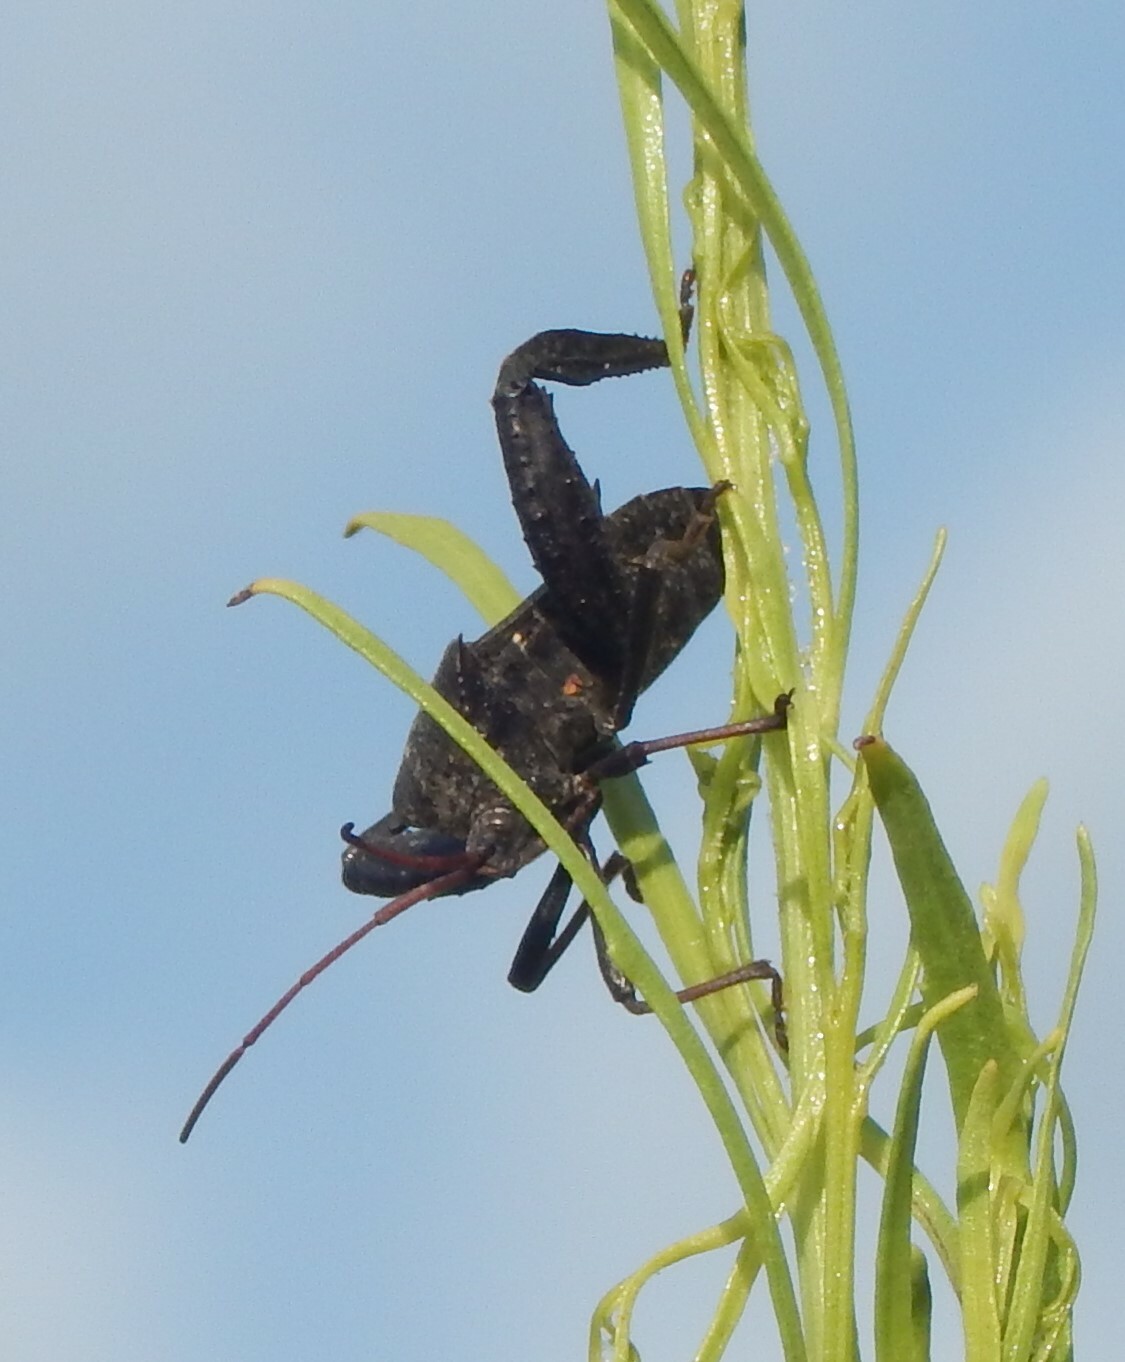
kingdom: Animalia
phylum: Arthropoda
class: Insecta
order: Hemiptera
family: Coreidae
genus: Acanthocephala
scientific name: Acanthocephala femorata
